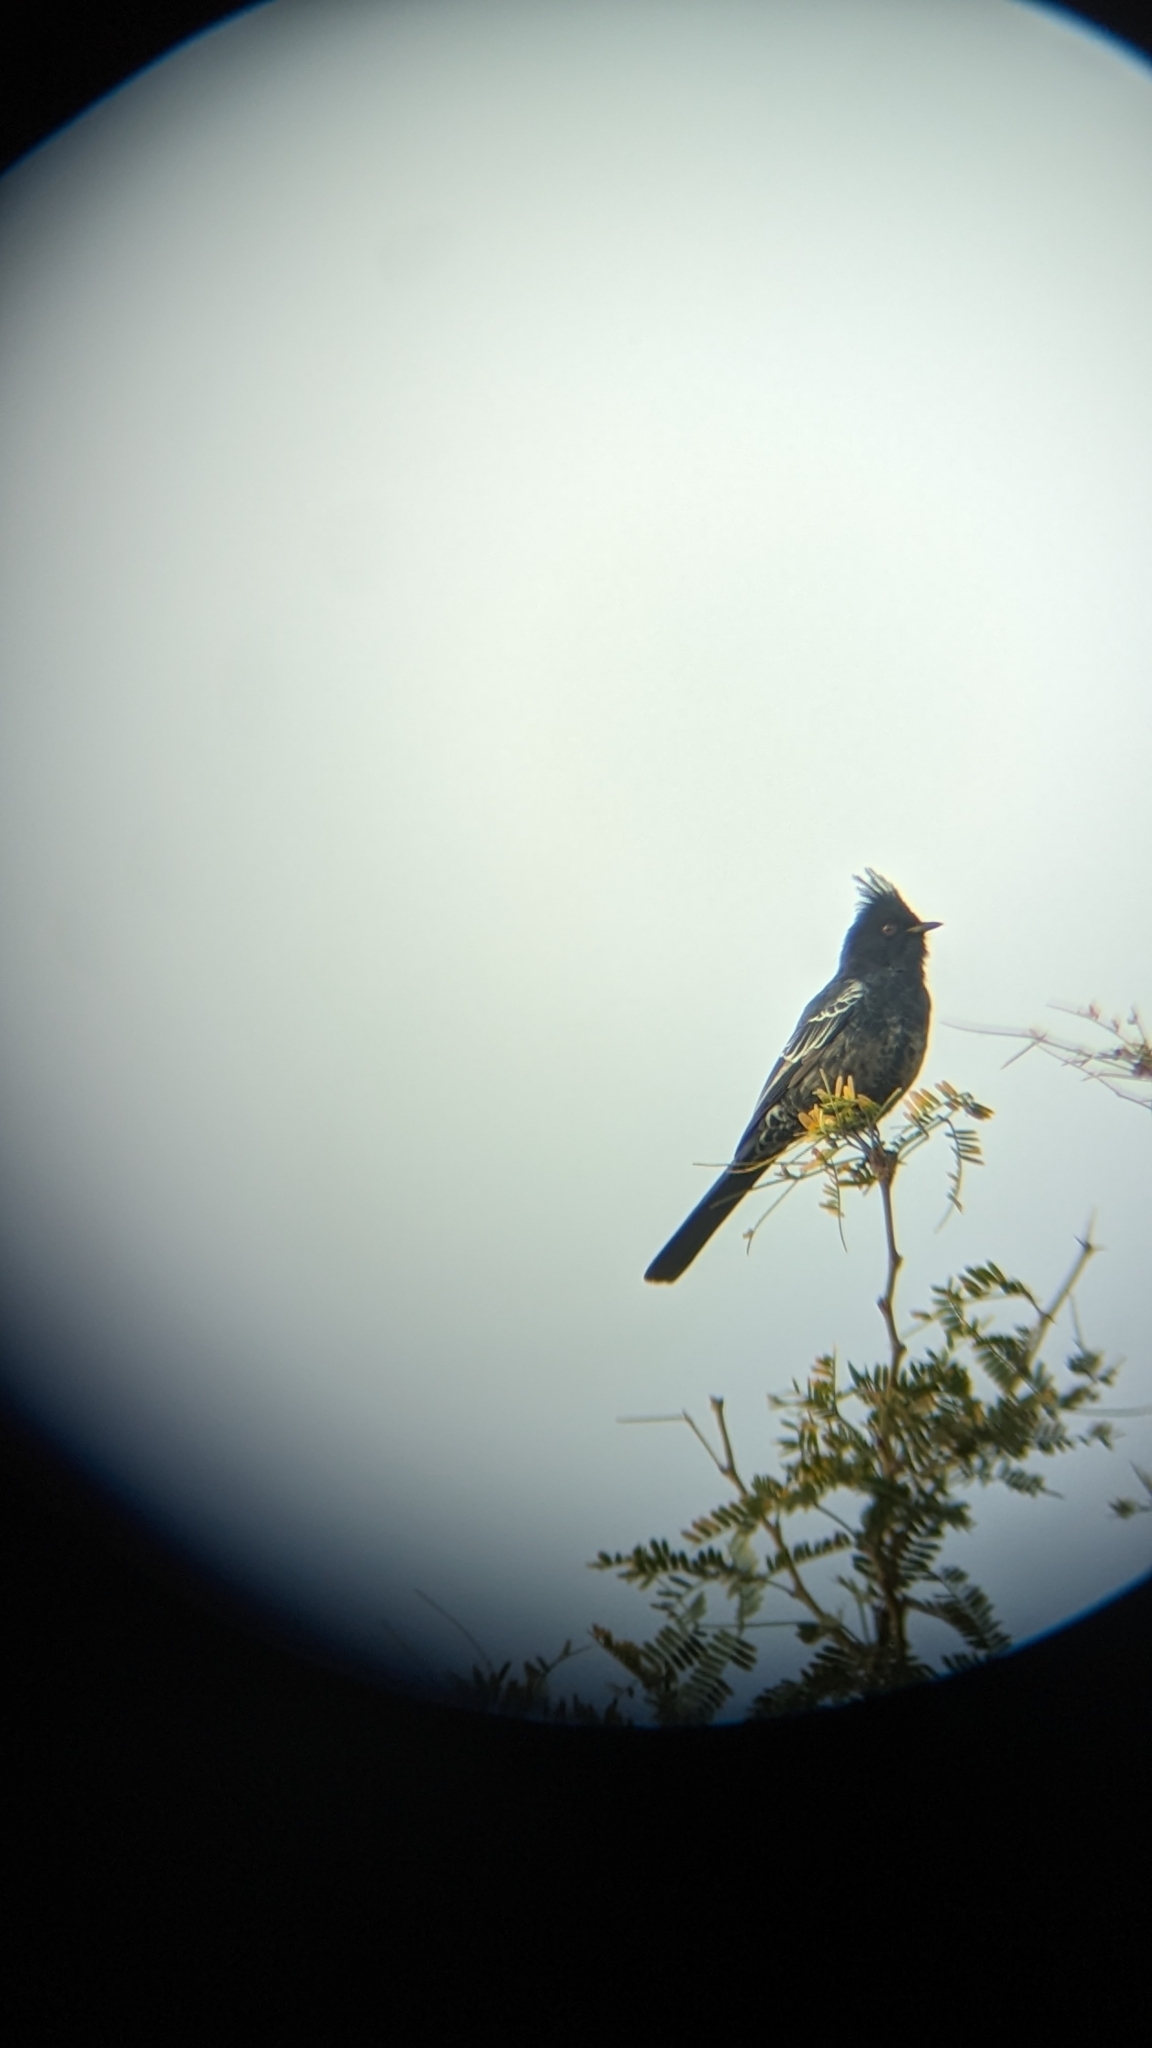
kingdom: Animalia
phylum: Chordata
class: Aves
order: Passeriformes
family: Ptilogonatidae
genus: Phainopepla
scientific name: Phainopepla nitens
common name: Phainopepla
